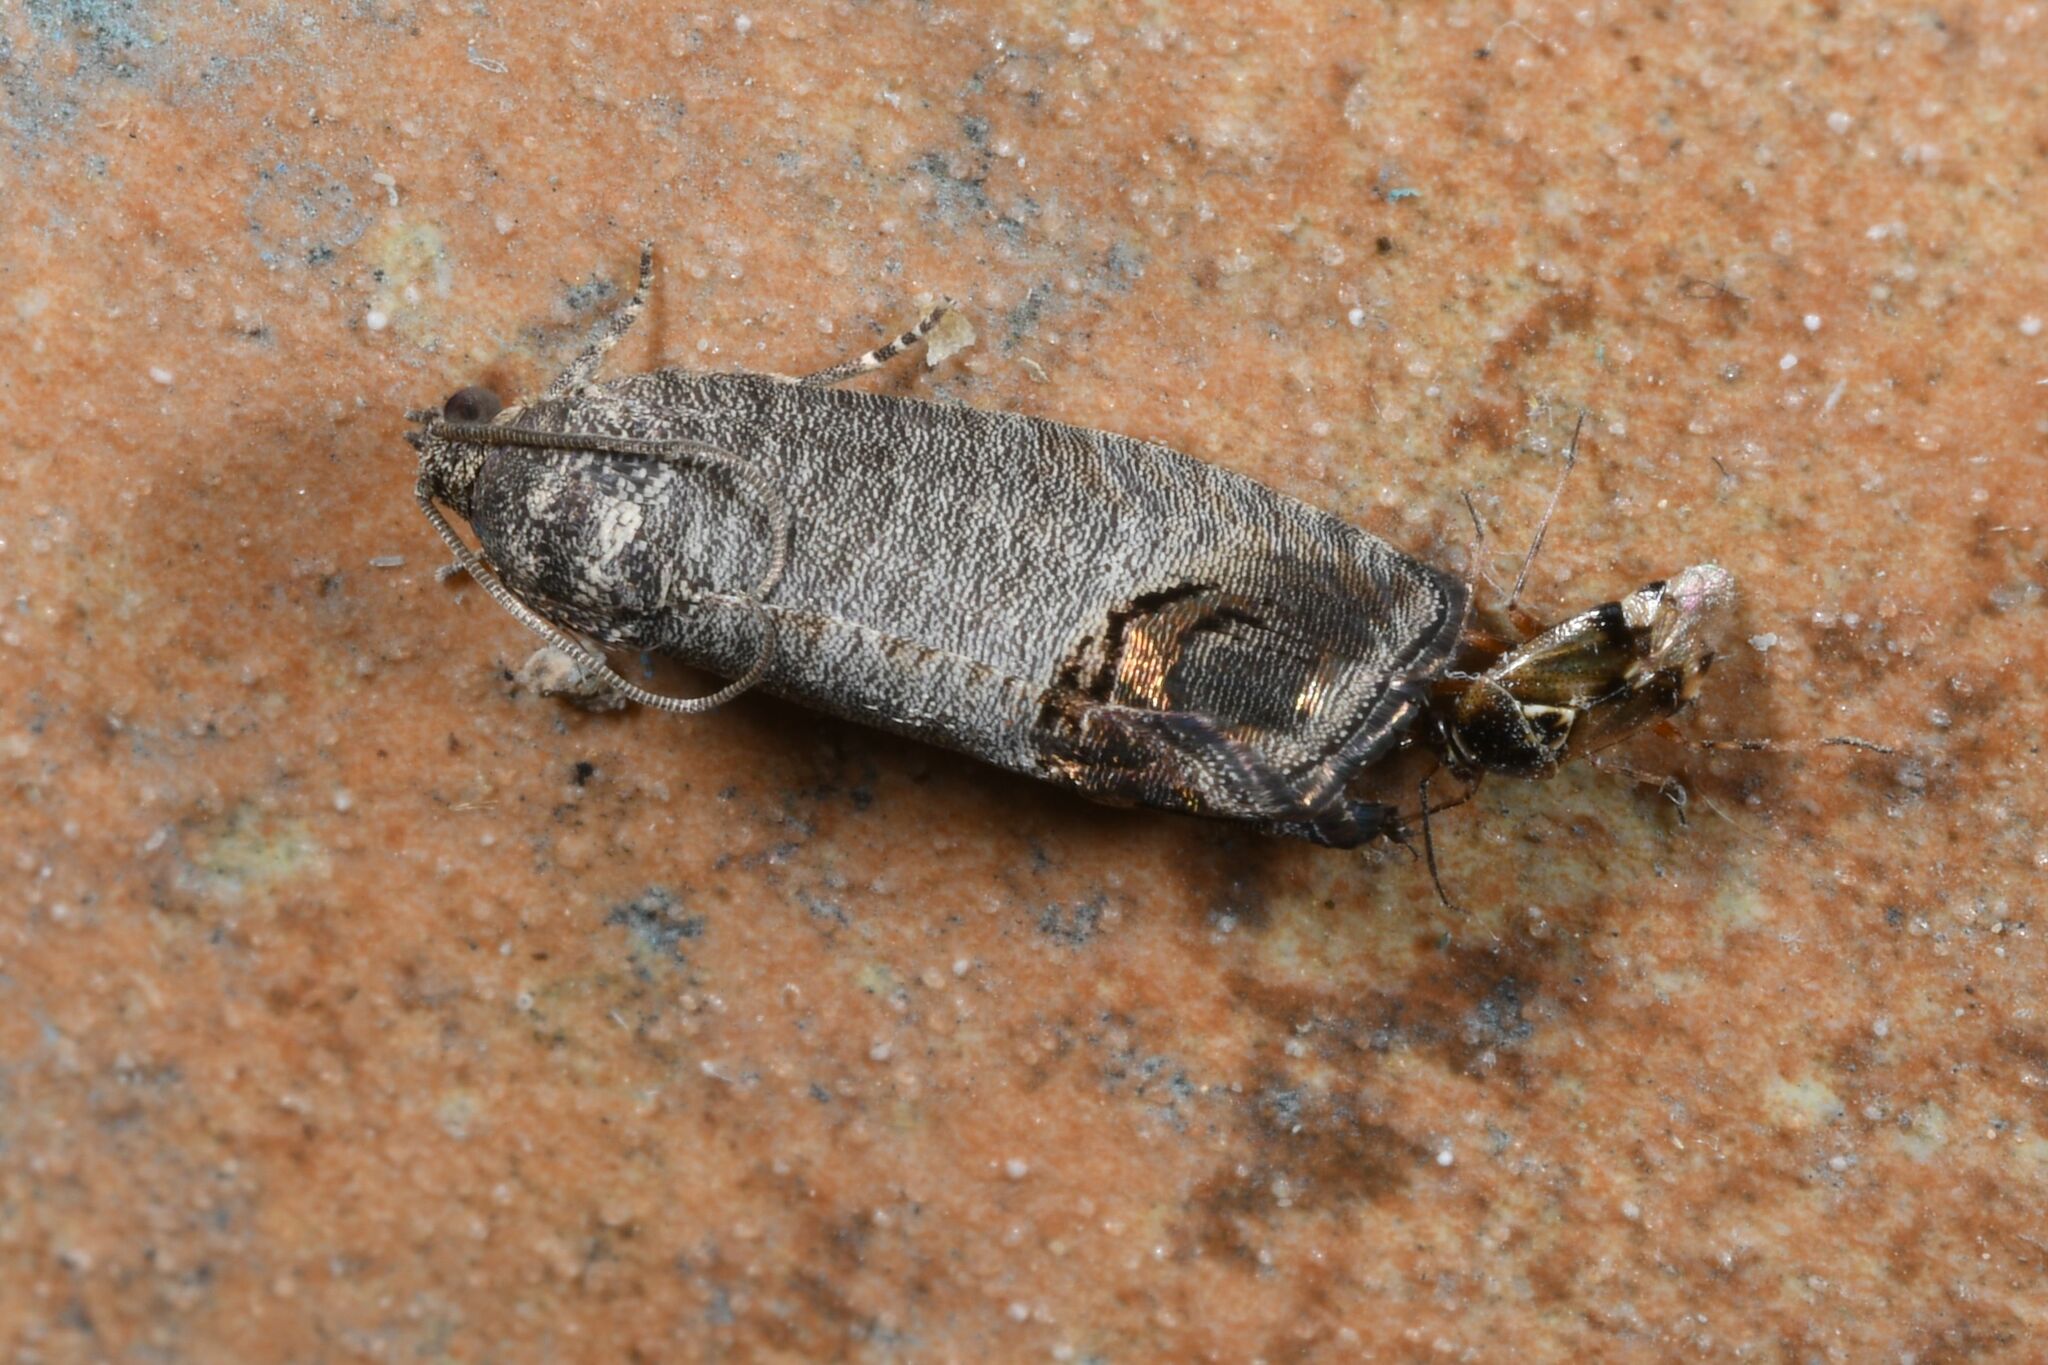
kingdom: Animalia
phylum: Arthropoda
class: Insecta
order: Lepidoptera
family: Tortricidae
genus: Cydia
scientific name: Cydia pomonella
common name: Codling moth
